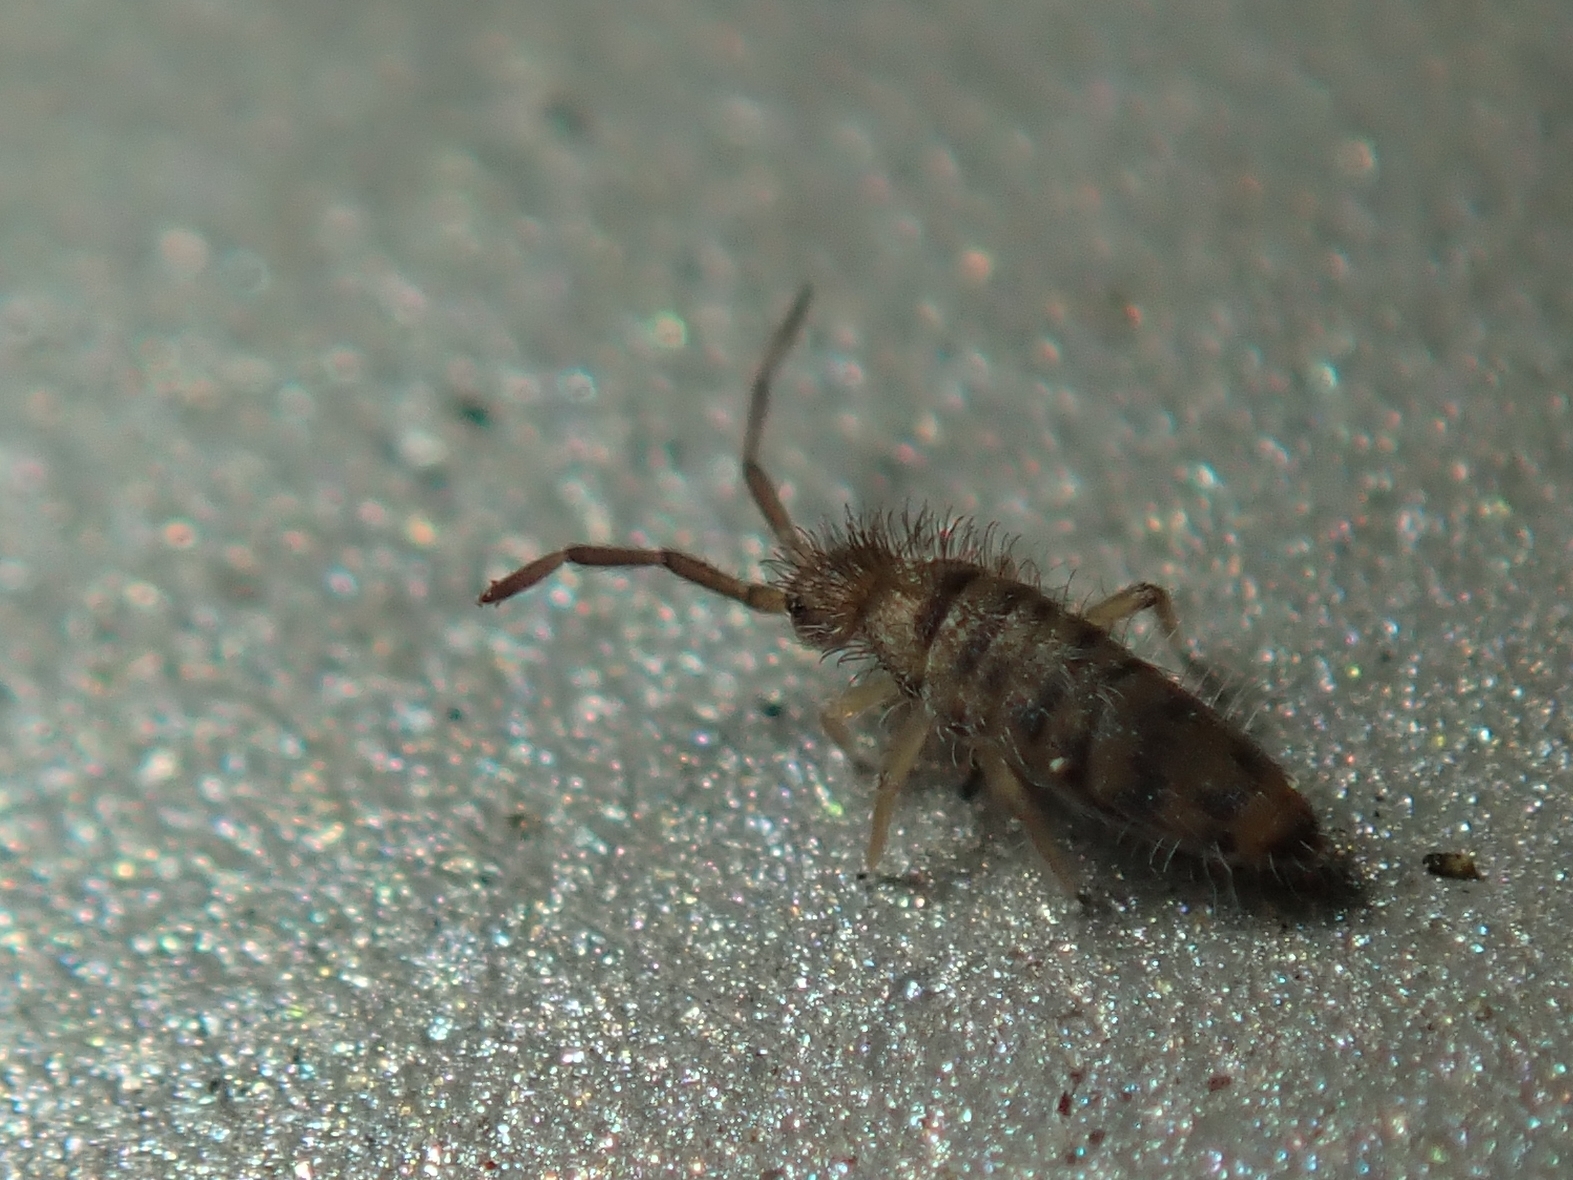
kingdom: Animalia
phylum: Arthropoda
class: Collembola
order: Entomobryomorpha
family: Entomobryidae
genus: Entomobrya
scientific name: Entomobrya multifasciata
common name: Springtail
